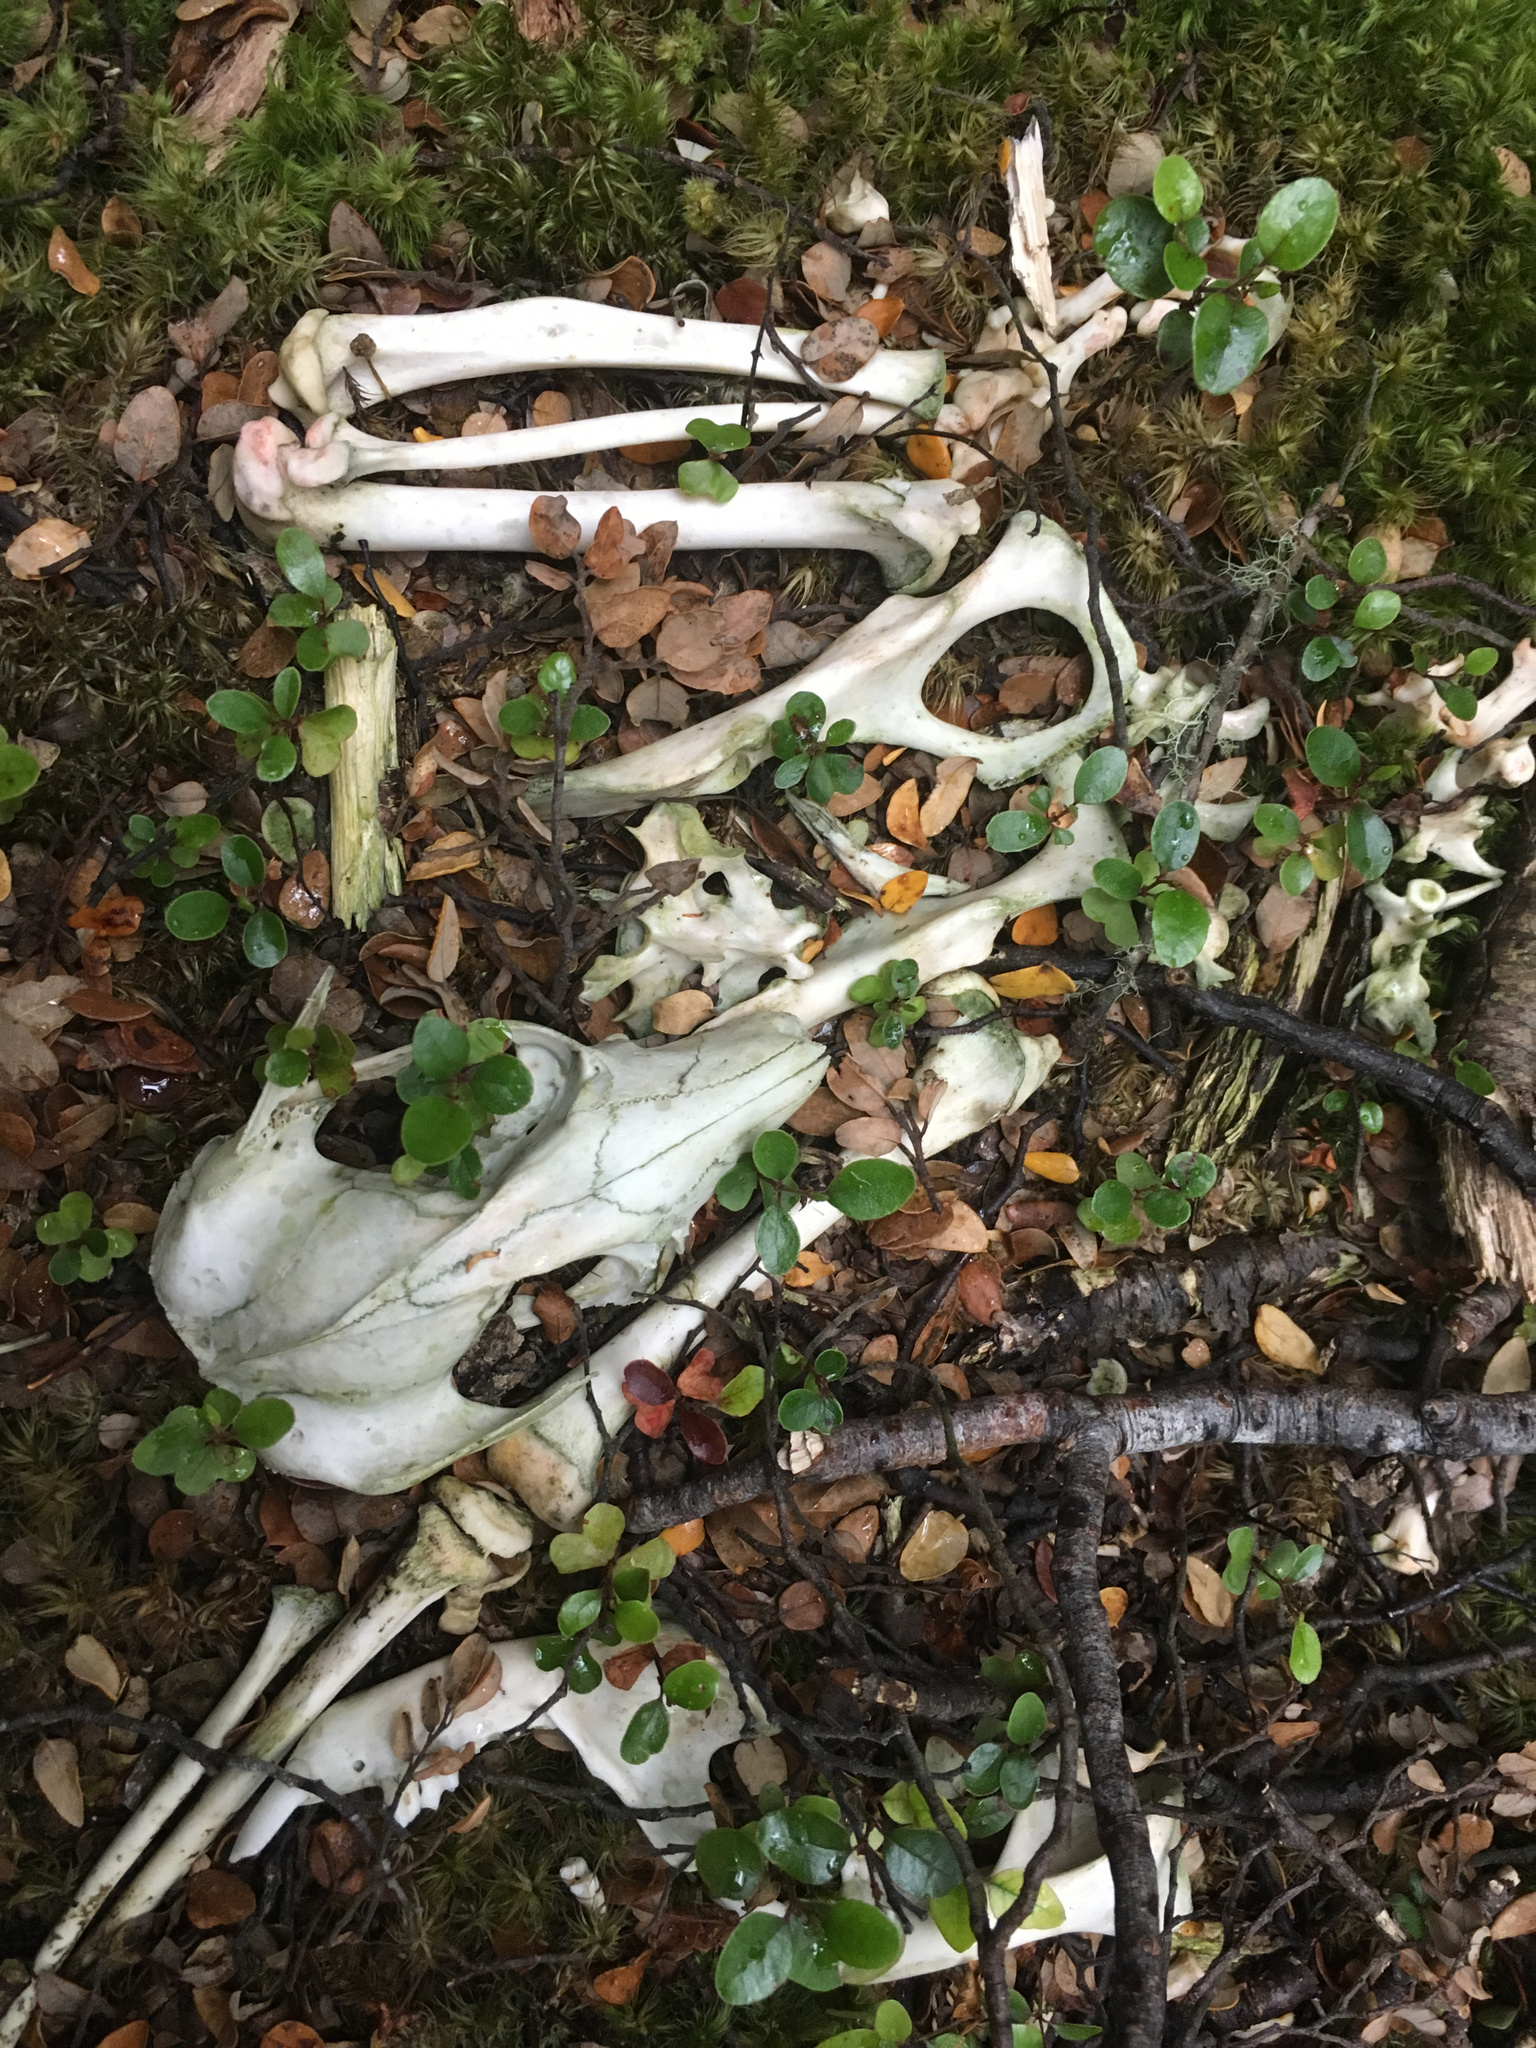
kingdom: Animalia
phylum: Chordata
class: Mammalia
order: Diprotodontia
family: Phalangeridae
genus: Trichosurus
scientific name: Trichosurus vulpecula
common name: Common brushtail
